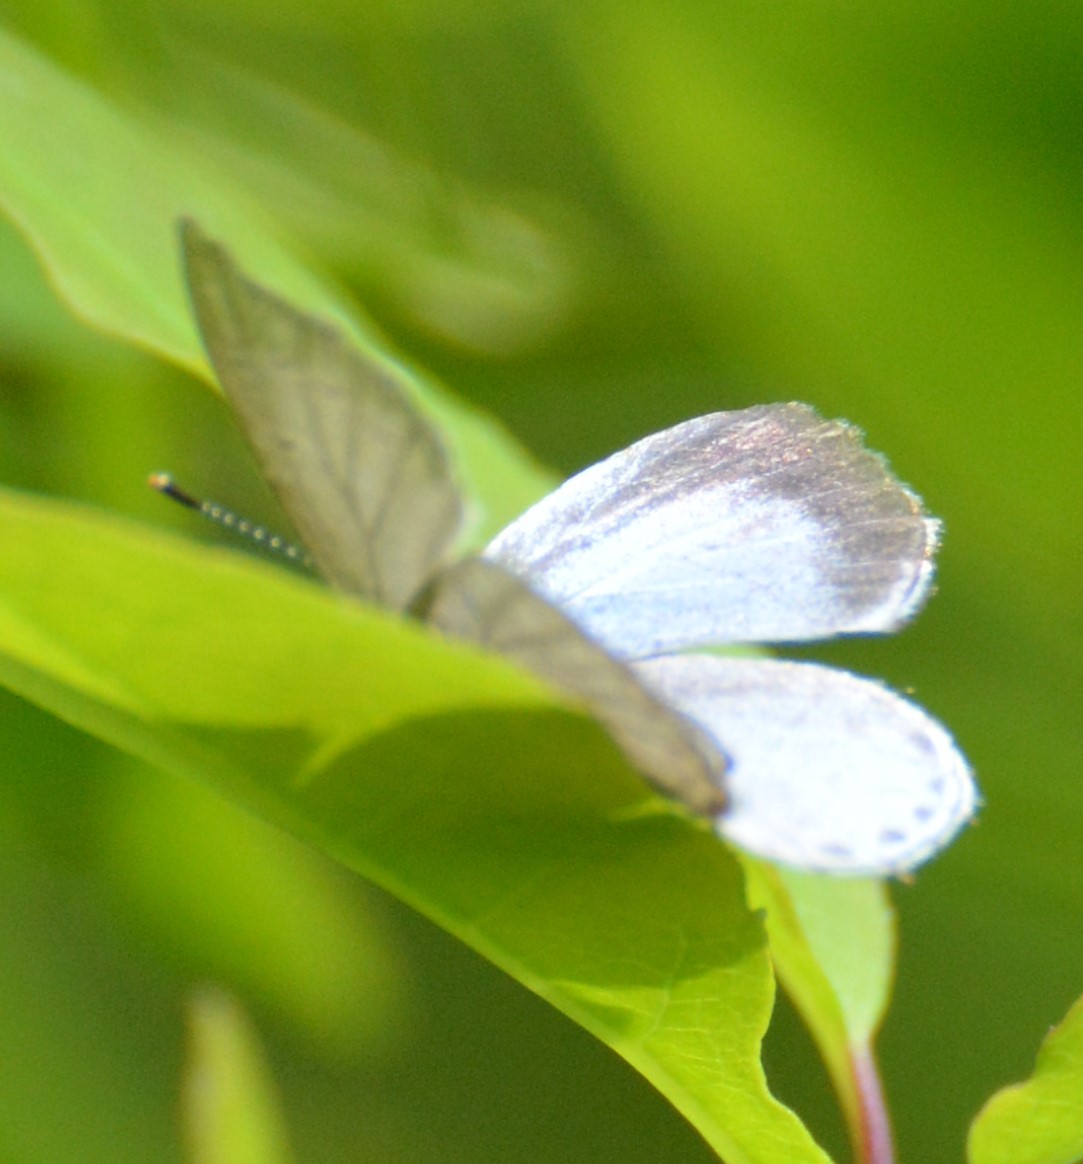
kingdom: Animalia
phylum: Arthropoda
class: Insecta
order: Lepidoptera
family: Lycaenidae
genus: Celastrina
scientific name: Celastrina lucia
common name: Lucia azure
